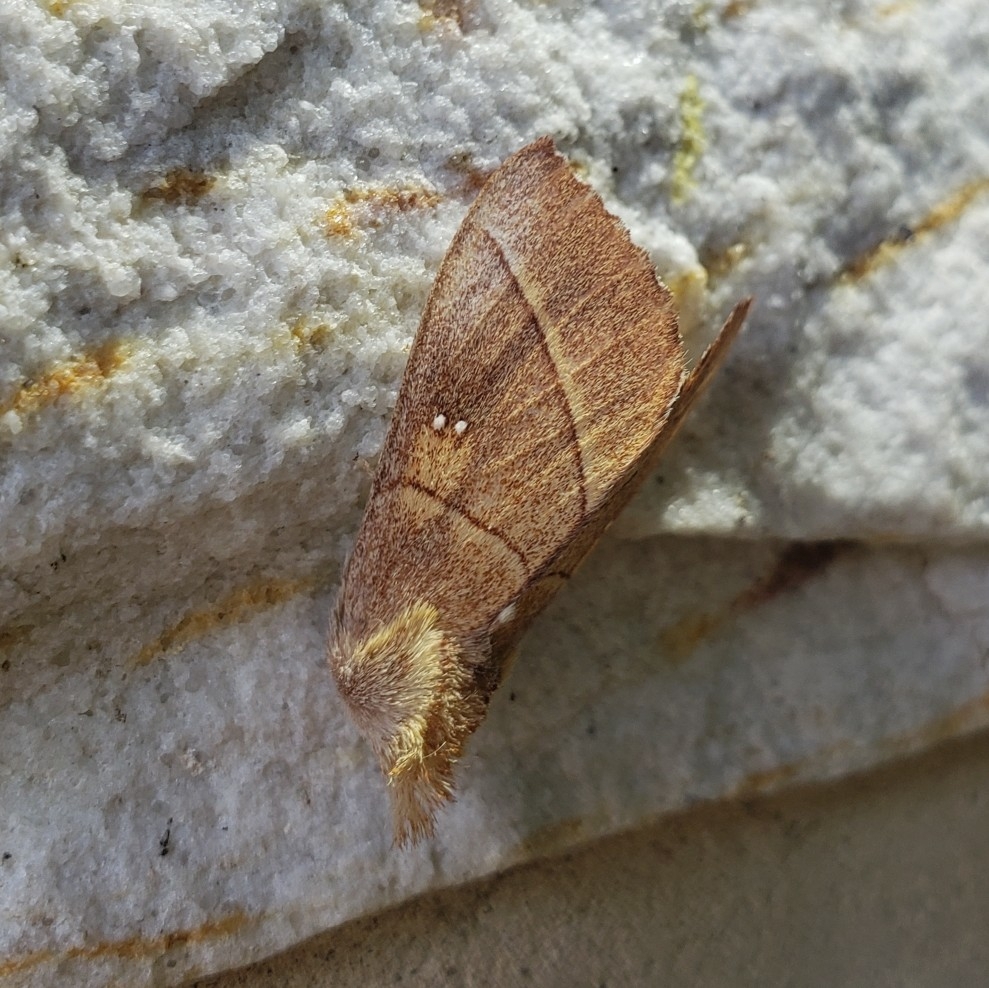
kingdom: Animalia
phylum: Arthropoda
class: Insecta
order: Lepidoptera
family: Notodontidae
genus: Nadata
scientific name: Nadata gibbosa
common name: White-dotted prominent
